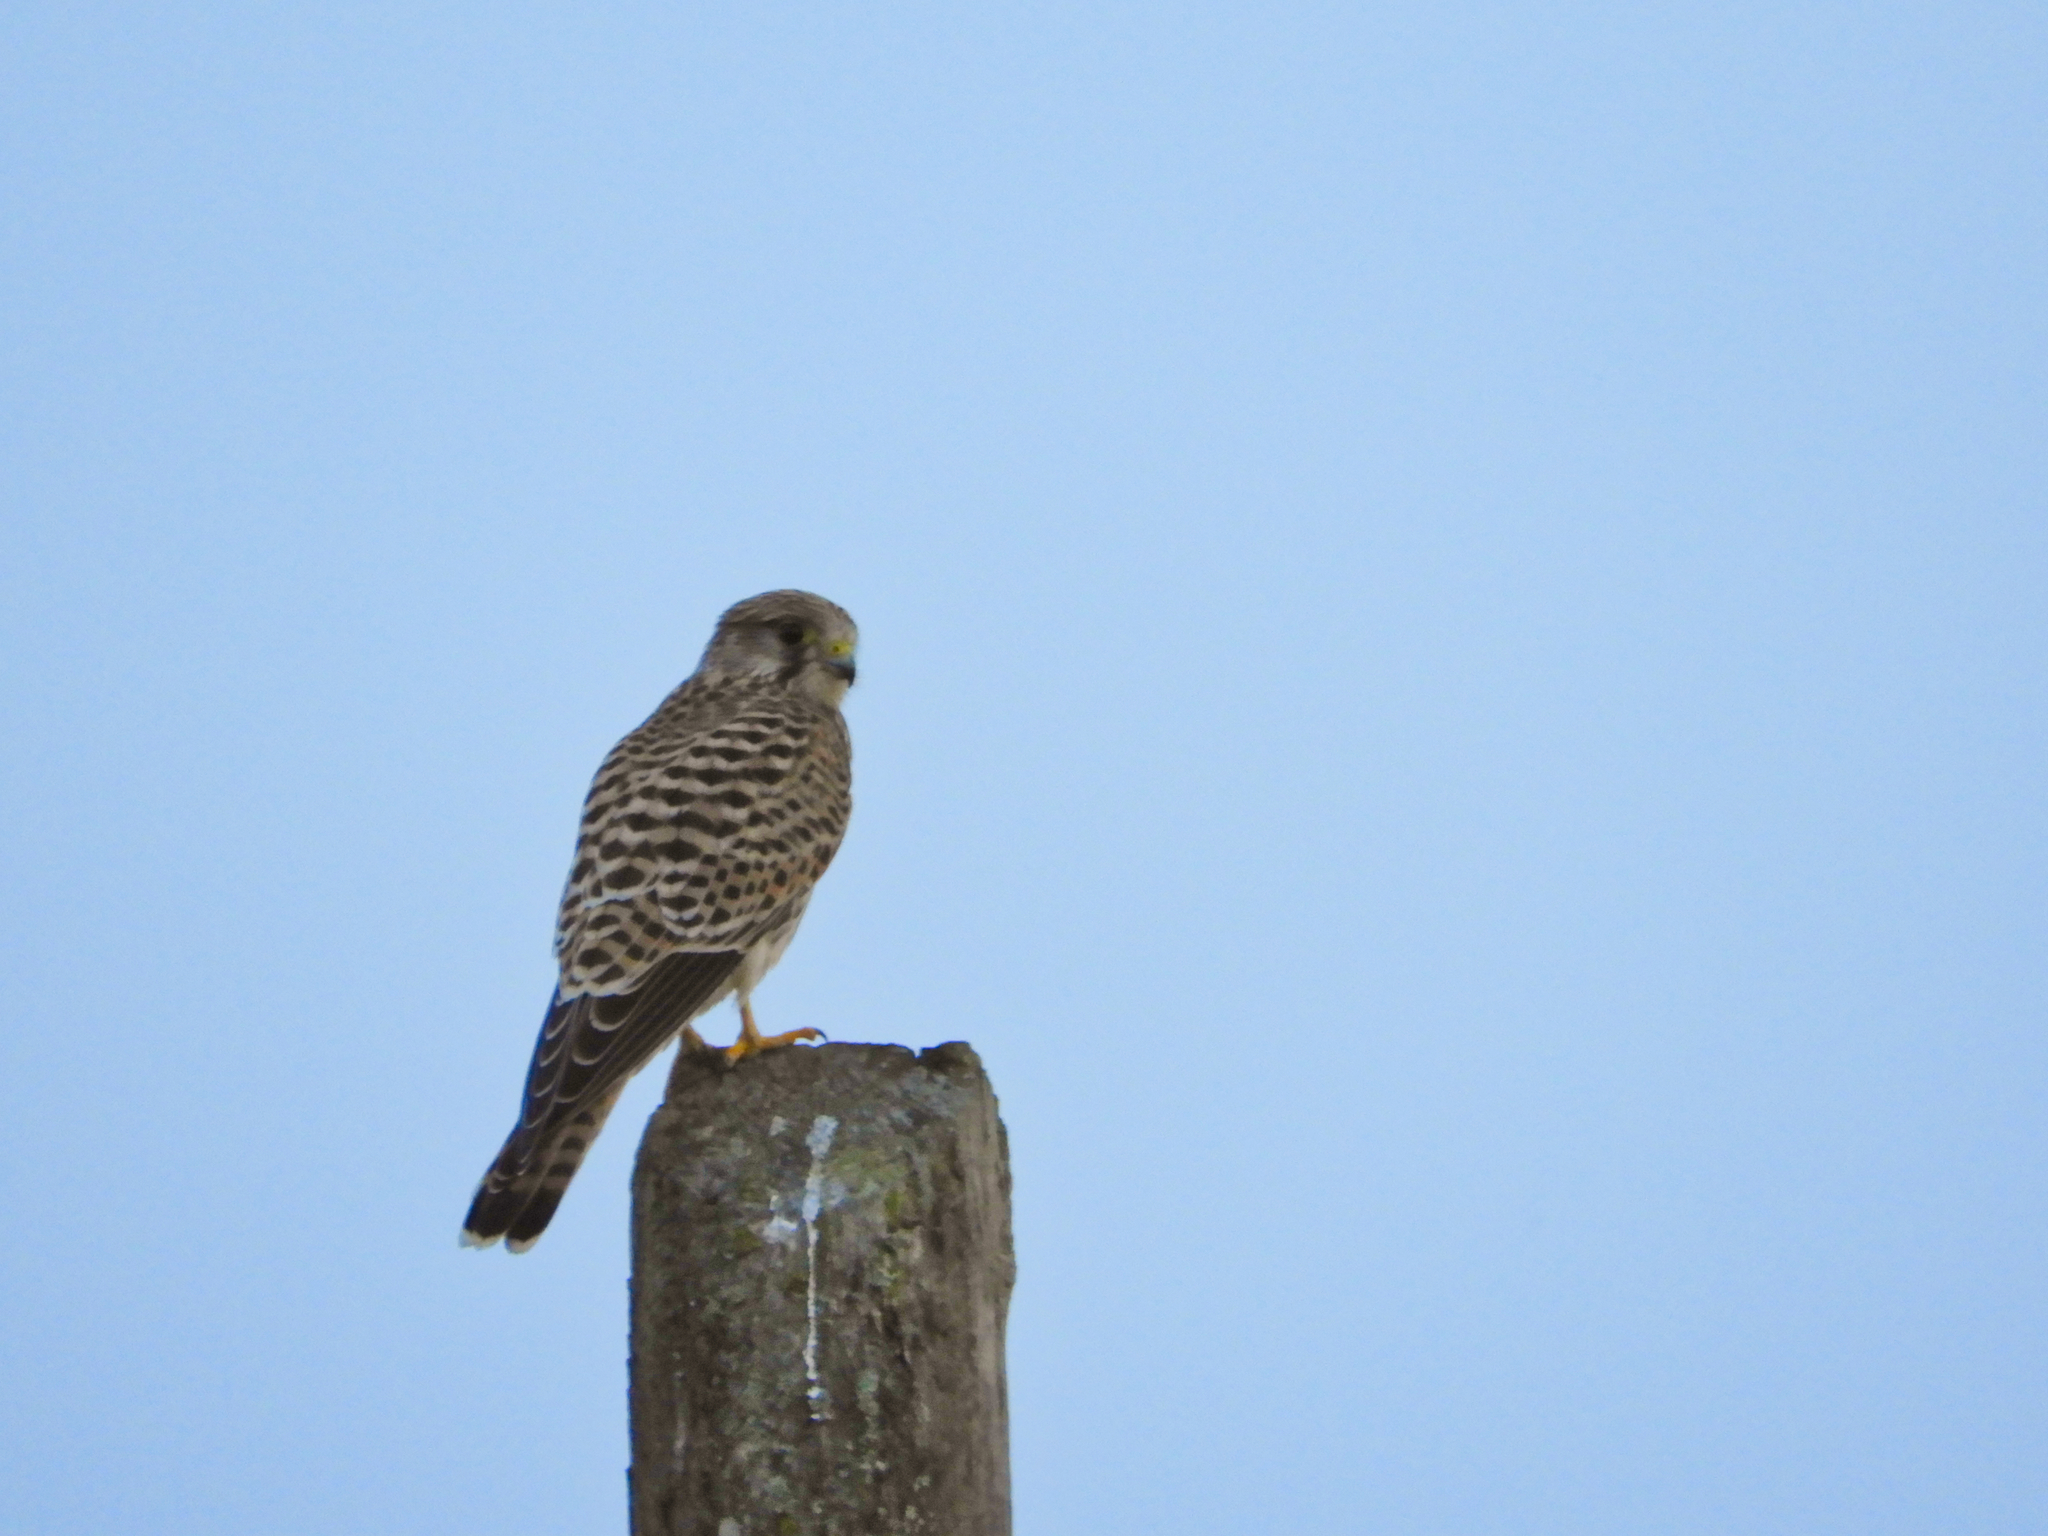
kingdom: Animalia
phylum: Chordata
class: Aves
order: Falconiformes
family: Falconidae
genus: Falco
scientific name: Falco tinnunculus
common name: Common kestrel
